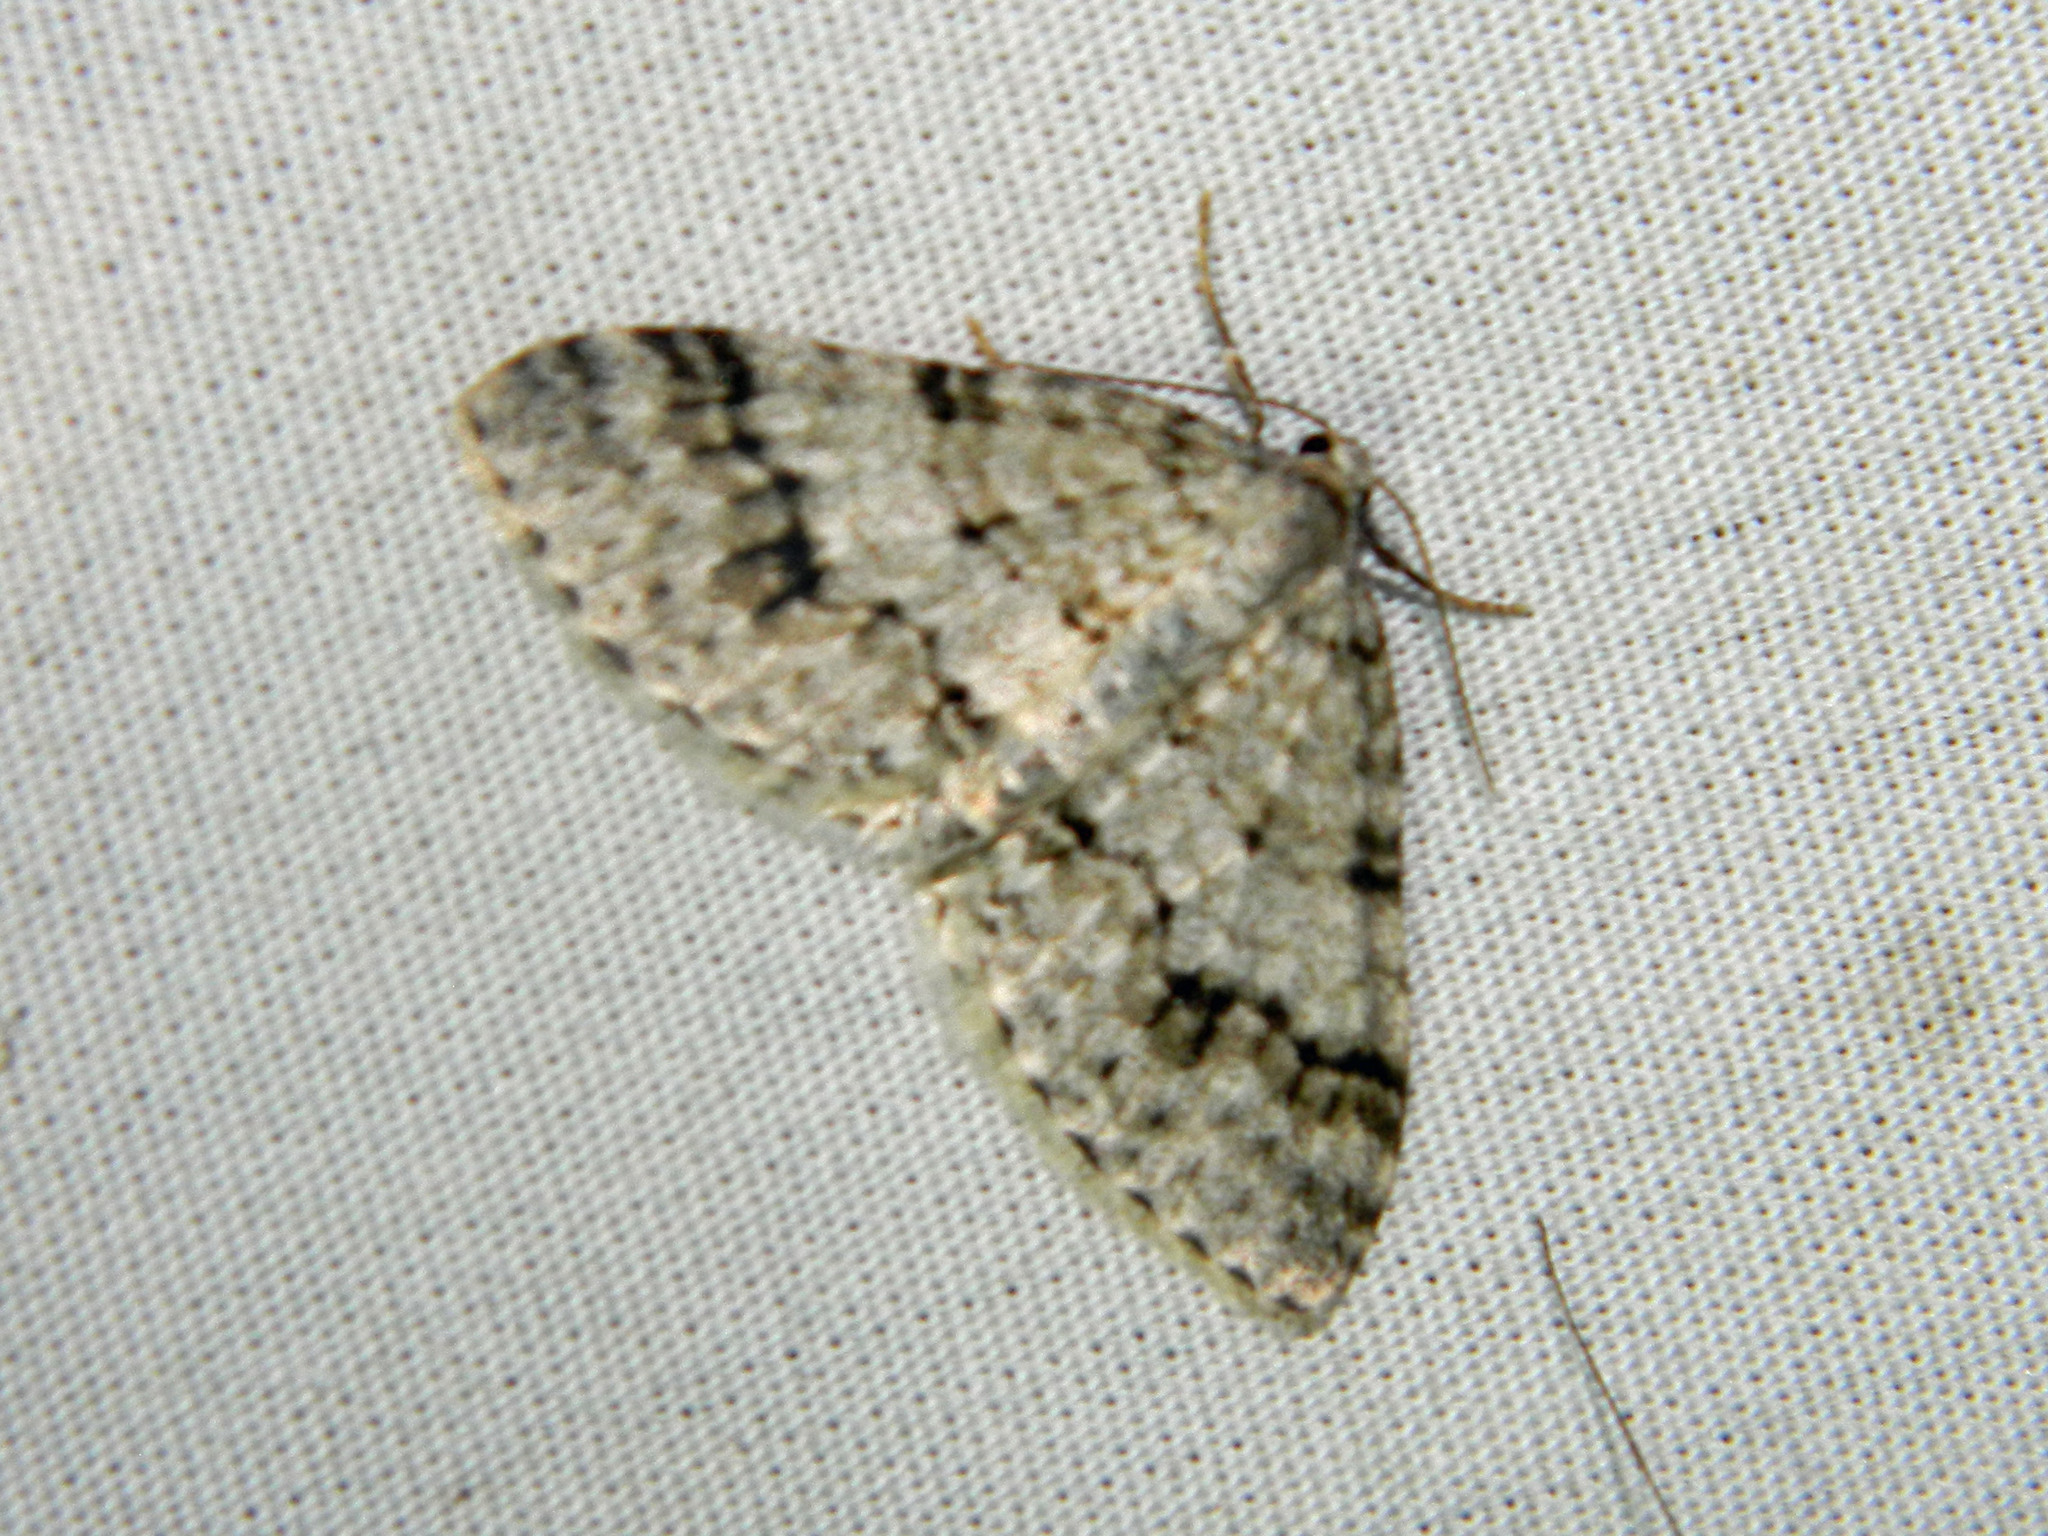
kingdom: Animalia
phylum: Arthropoda
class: Insecta
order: Lepidoptera
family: Geometridae
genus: Venusia
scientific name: Venusia cambrica
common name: Welsh wave
